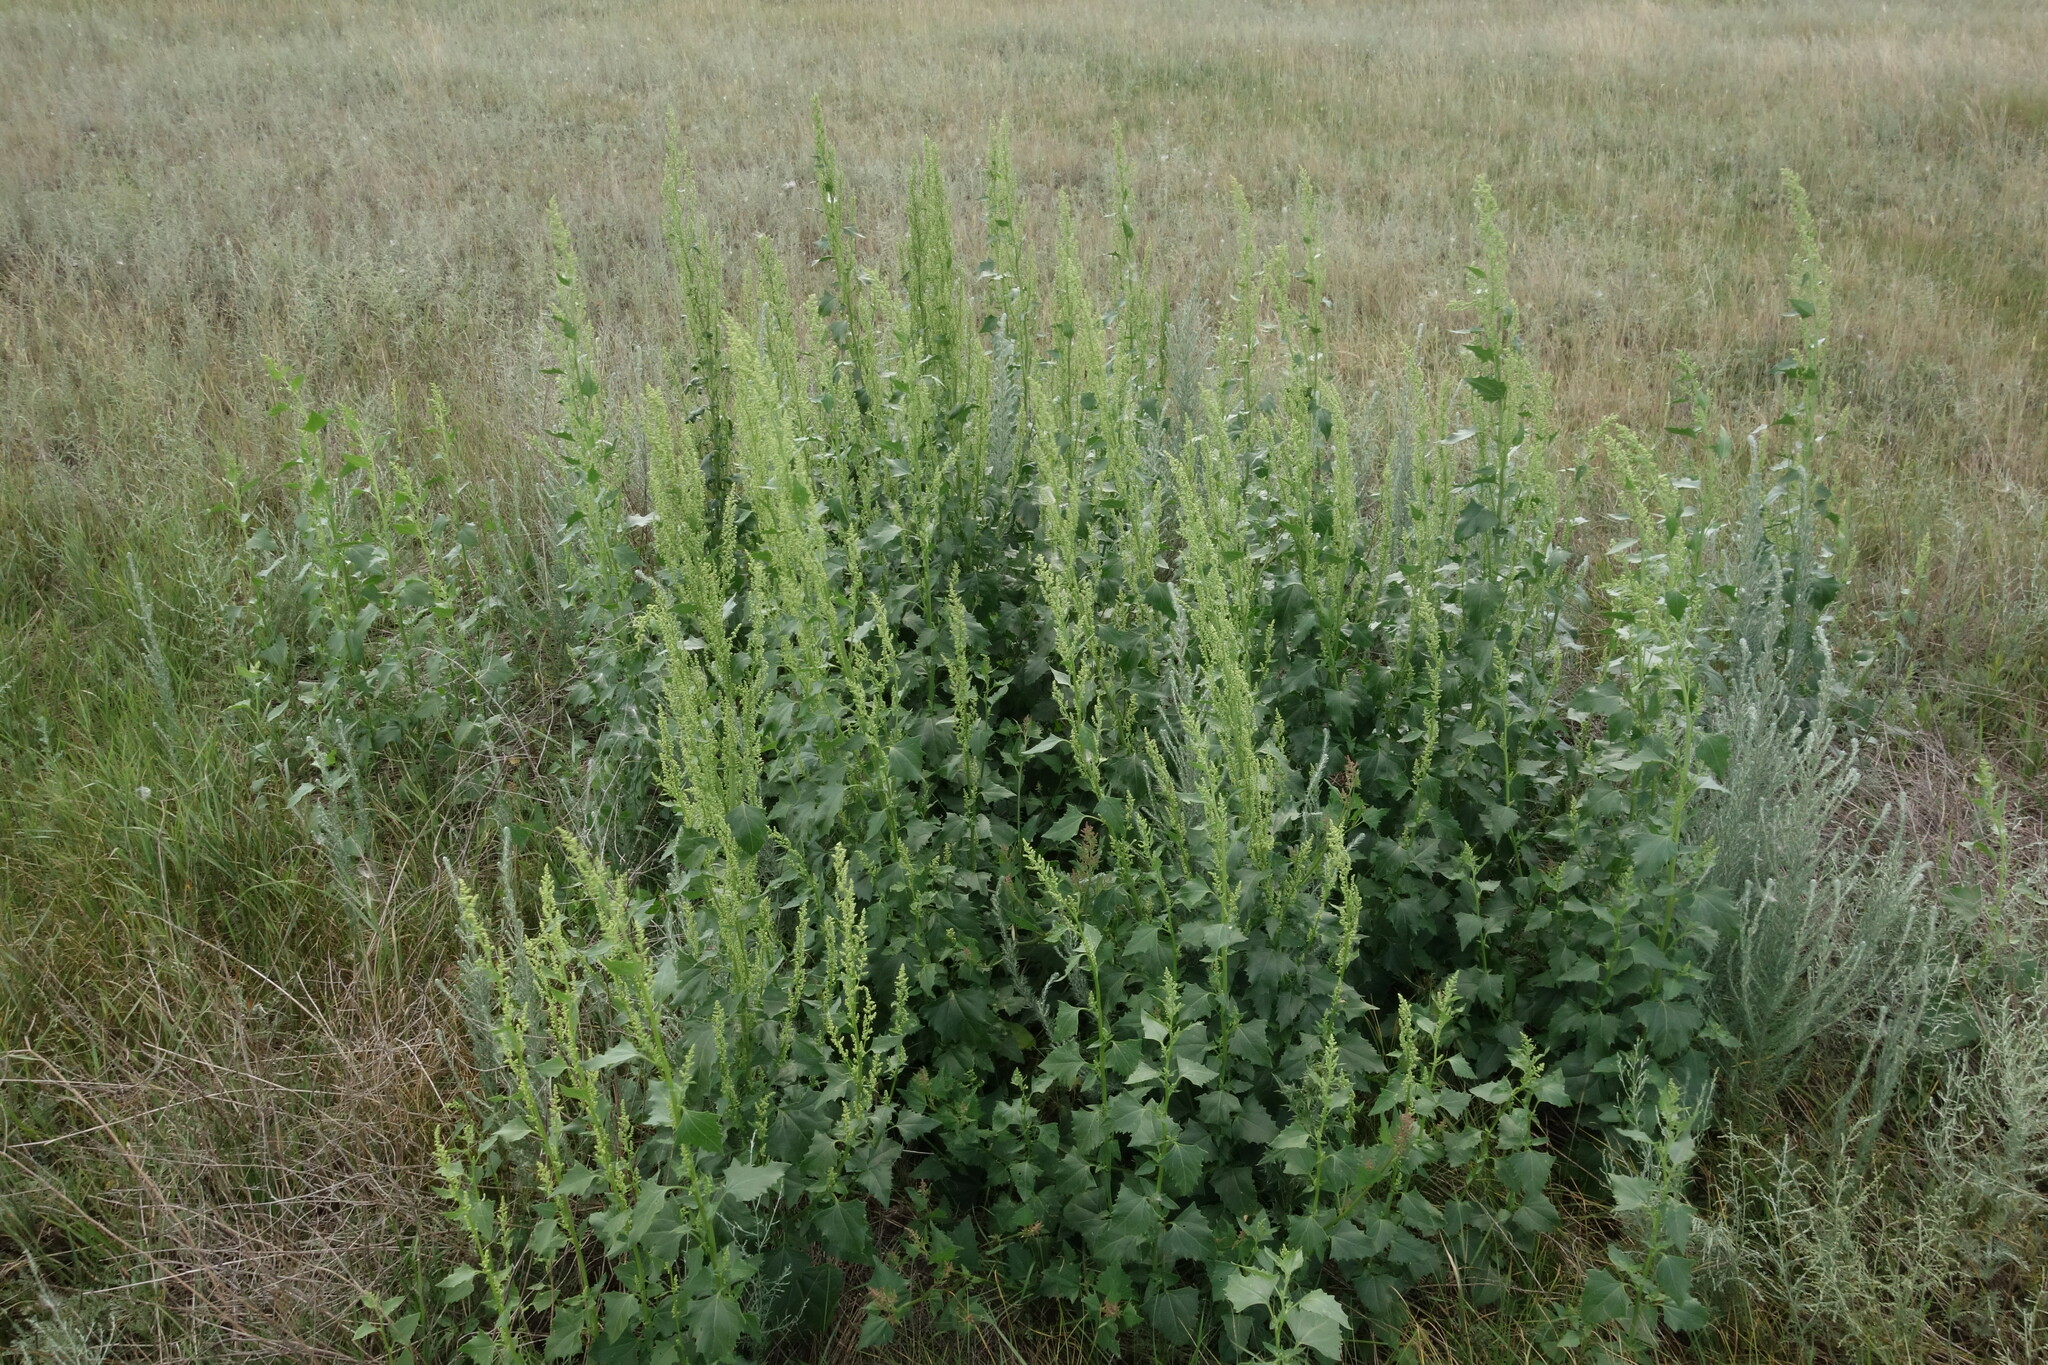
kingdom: Plantae
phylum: Tracheophyta
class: Magnoliopsida
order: Caryophyllales
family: Amaranthaceae
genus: Oxybasis
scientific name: Oxybasis urbica
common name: City goosefoot
